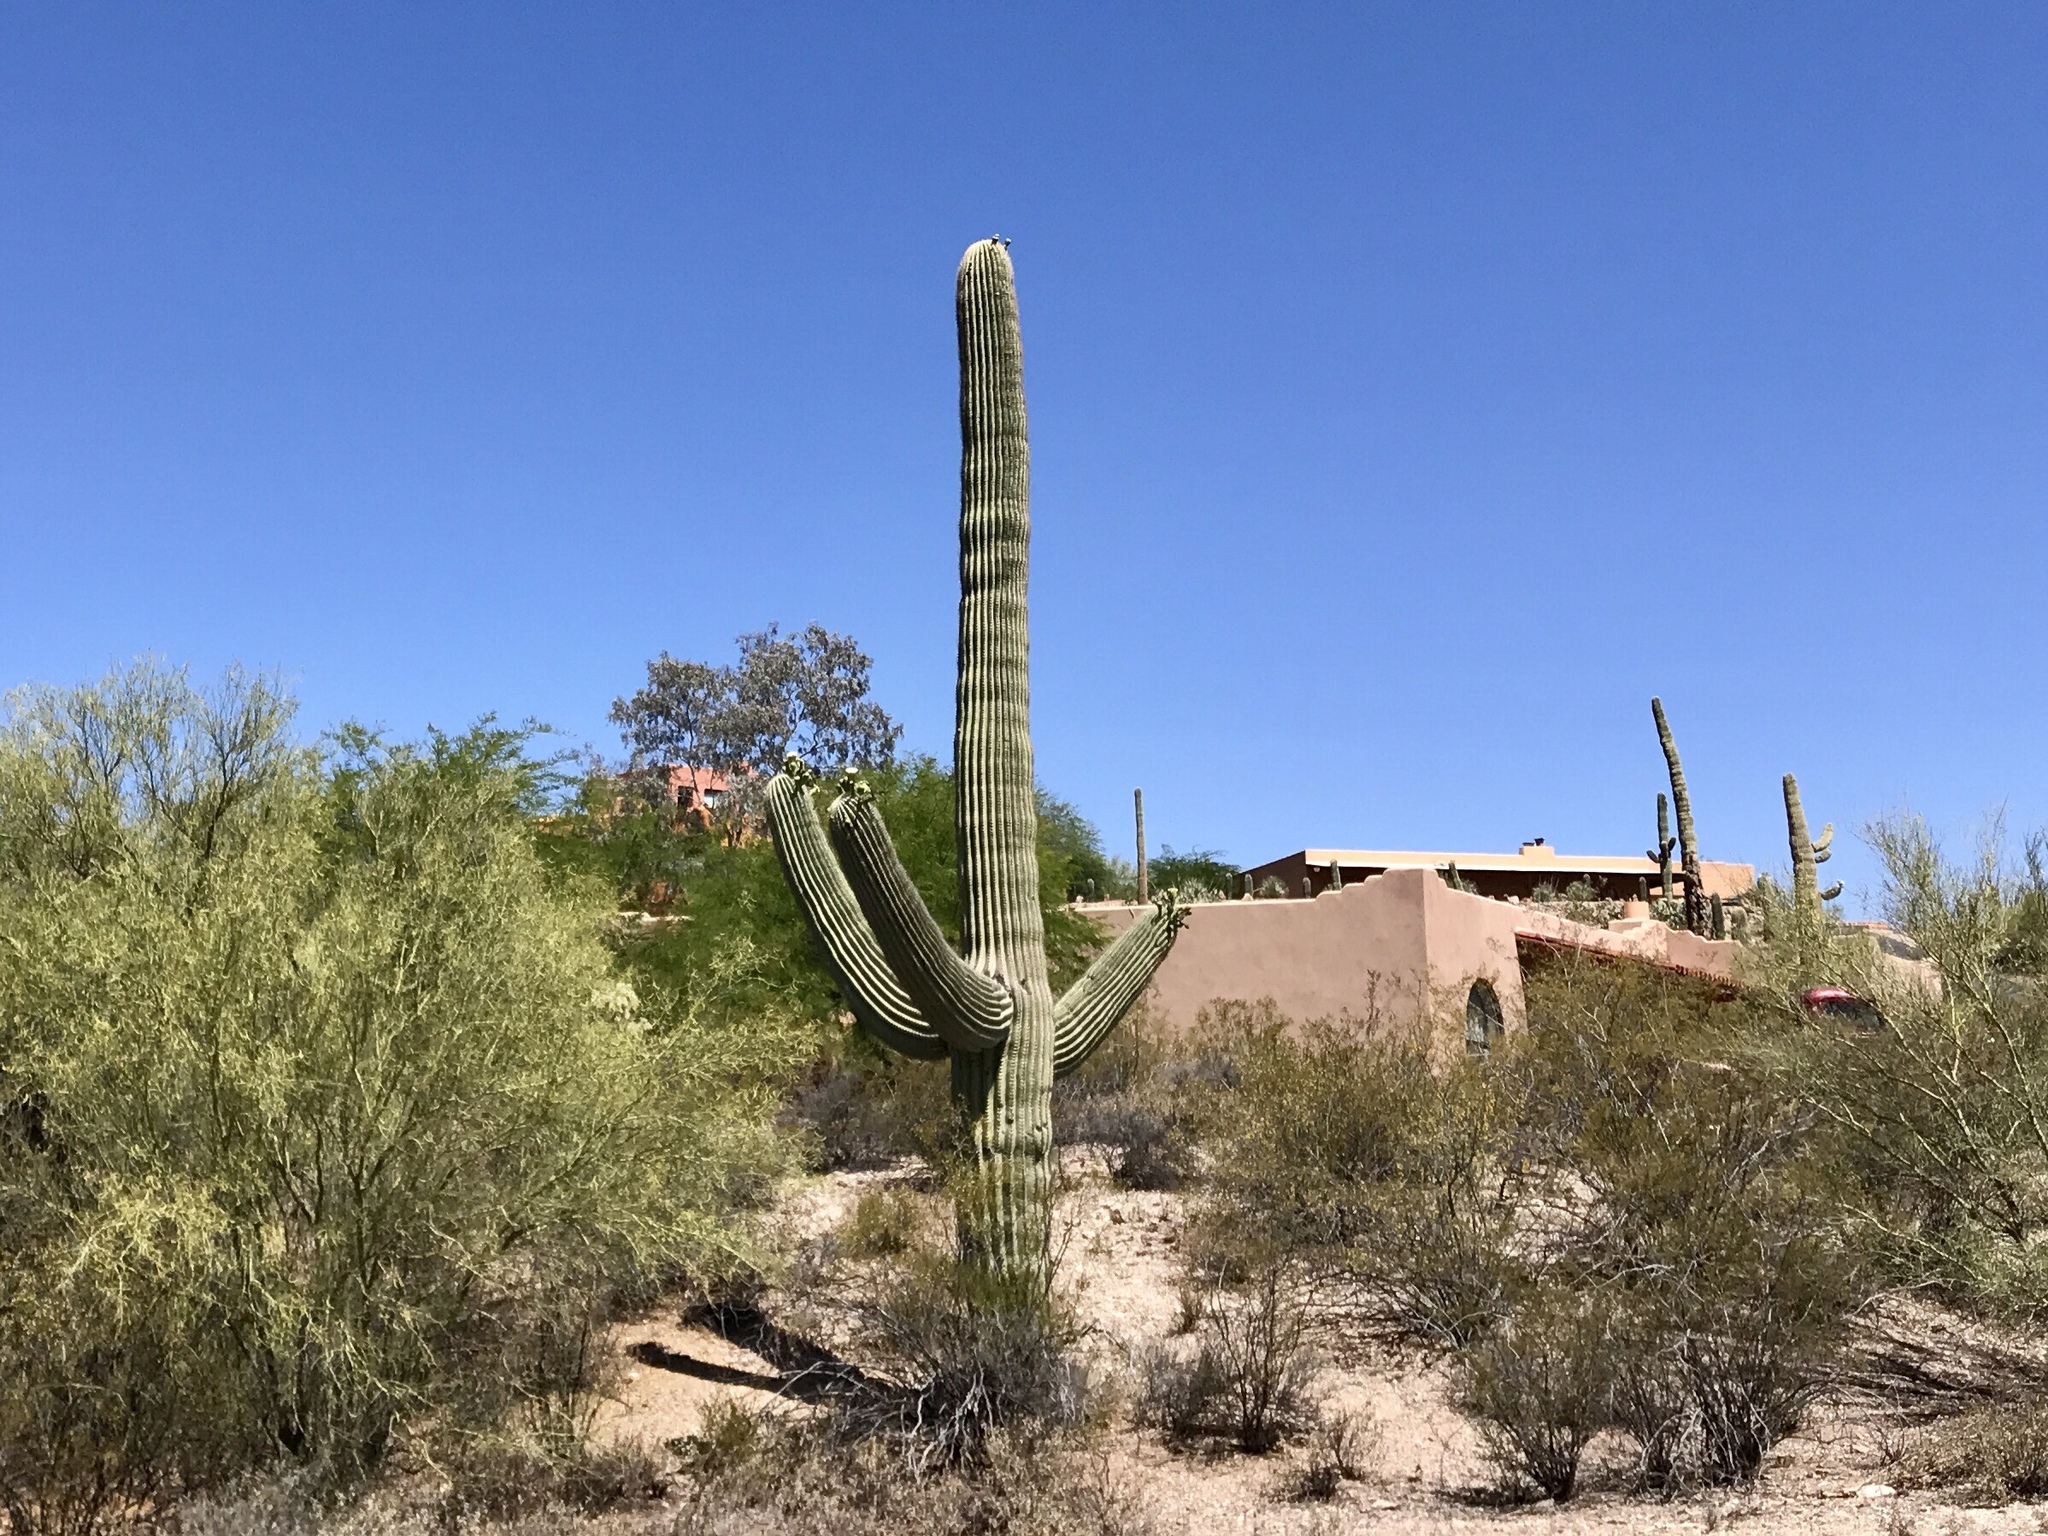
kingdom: Plantae
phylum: Tracheophyta
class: Magnoliopsida
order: Caryophyllales
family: Cactaceae
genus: Carnegiea
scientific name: Carnegiea gigantea
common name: Saguaro
